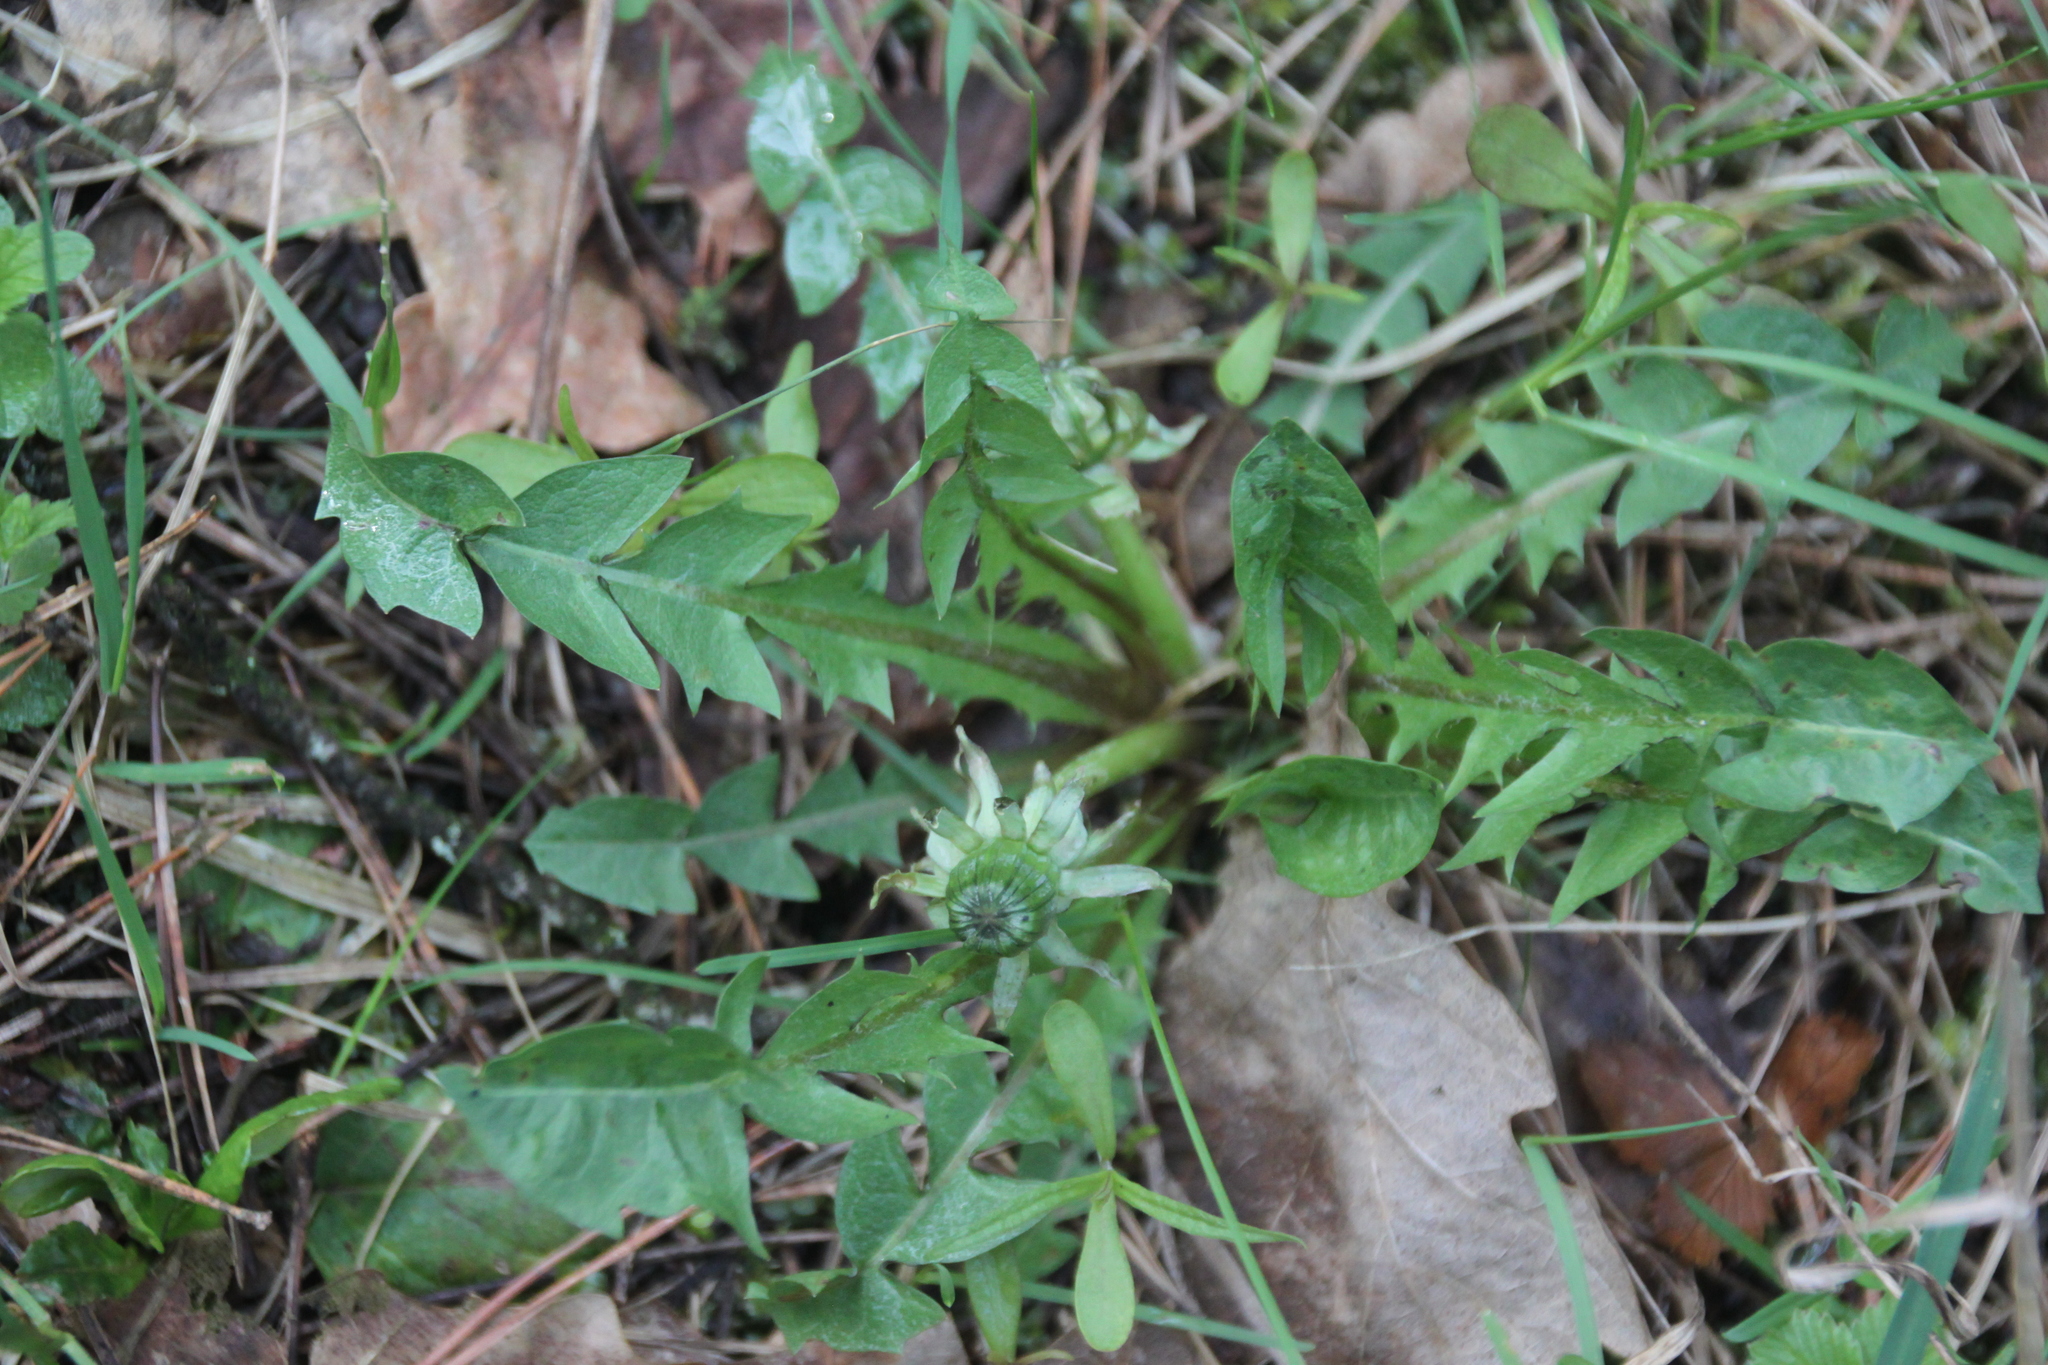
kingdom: Plantae
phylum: Tracheophyta
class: Magnoliopsida
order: Asterales
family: Asteraceae
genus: Taraxacum
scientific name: Taraxacum officinale
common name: Common dandelion
